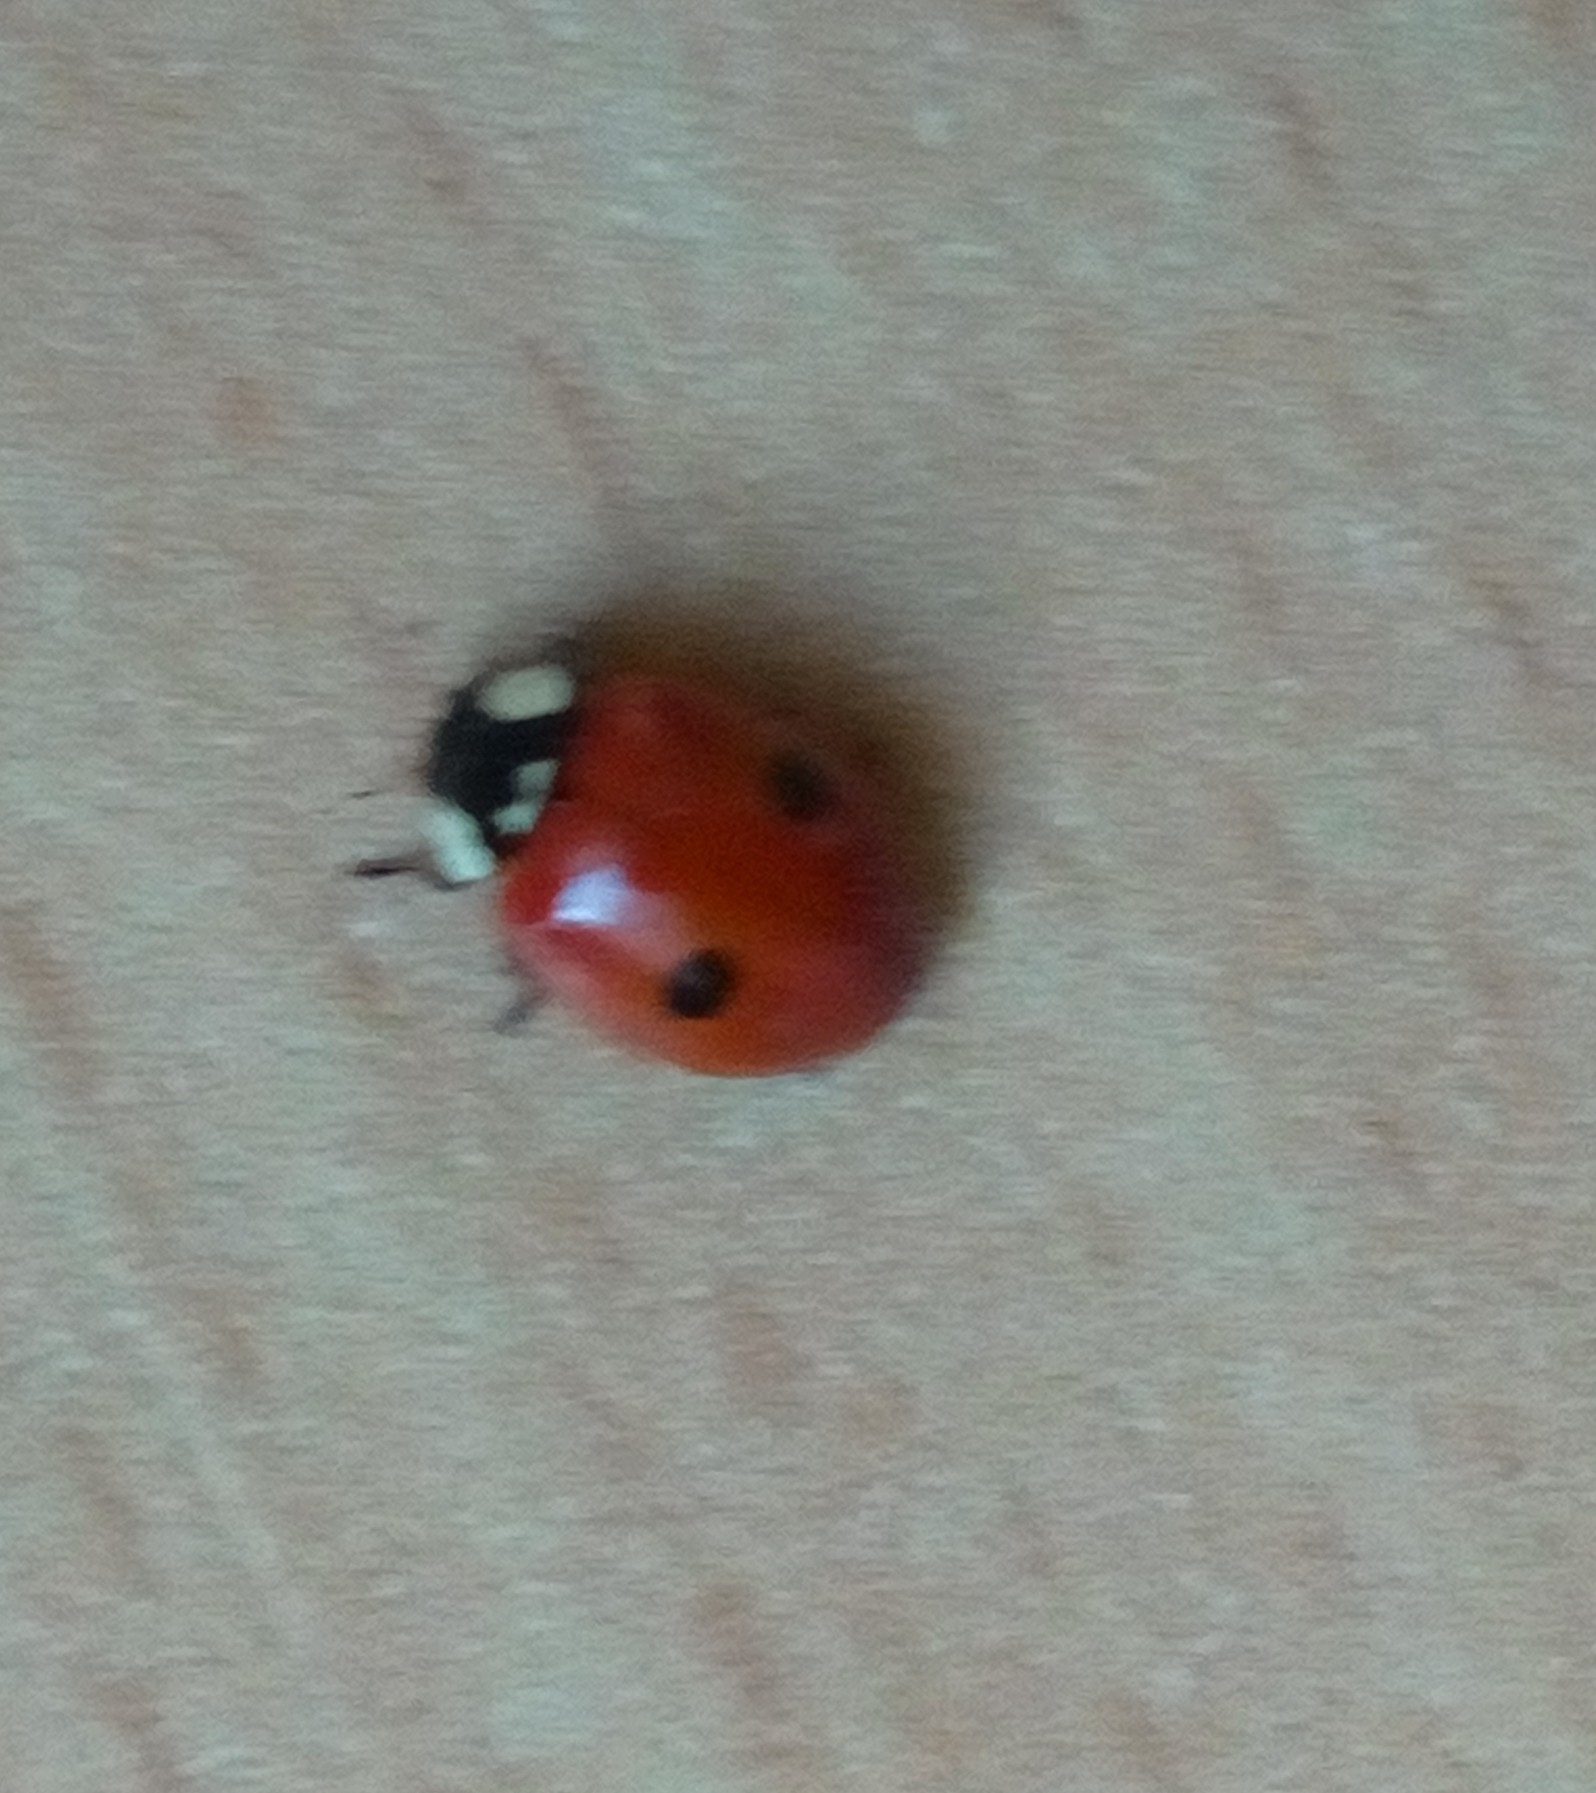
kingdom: Animalia
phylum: Arthropoda
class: Insecta
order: Coleoptera
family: Coccinellidae
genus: Adalia
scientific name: Adalia bipunctata
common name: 2-spot ladybird
